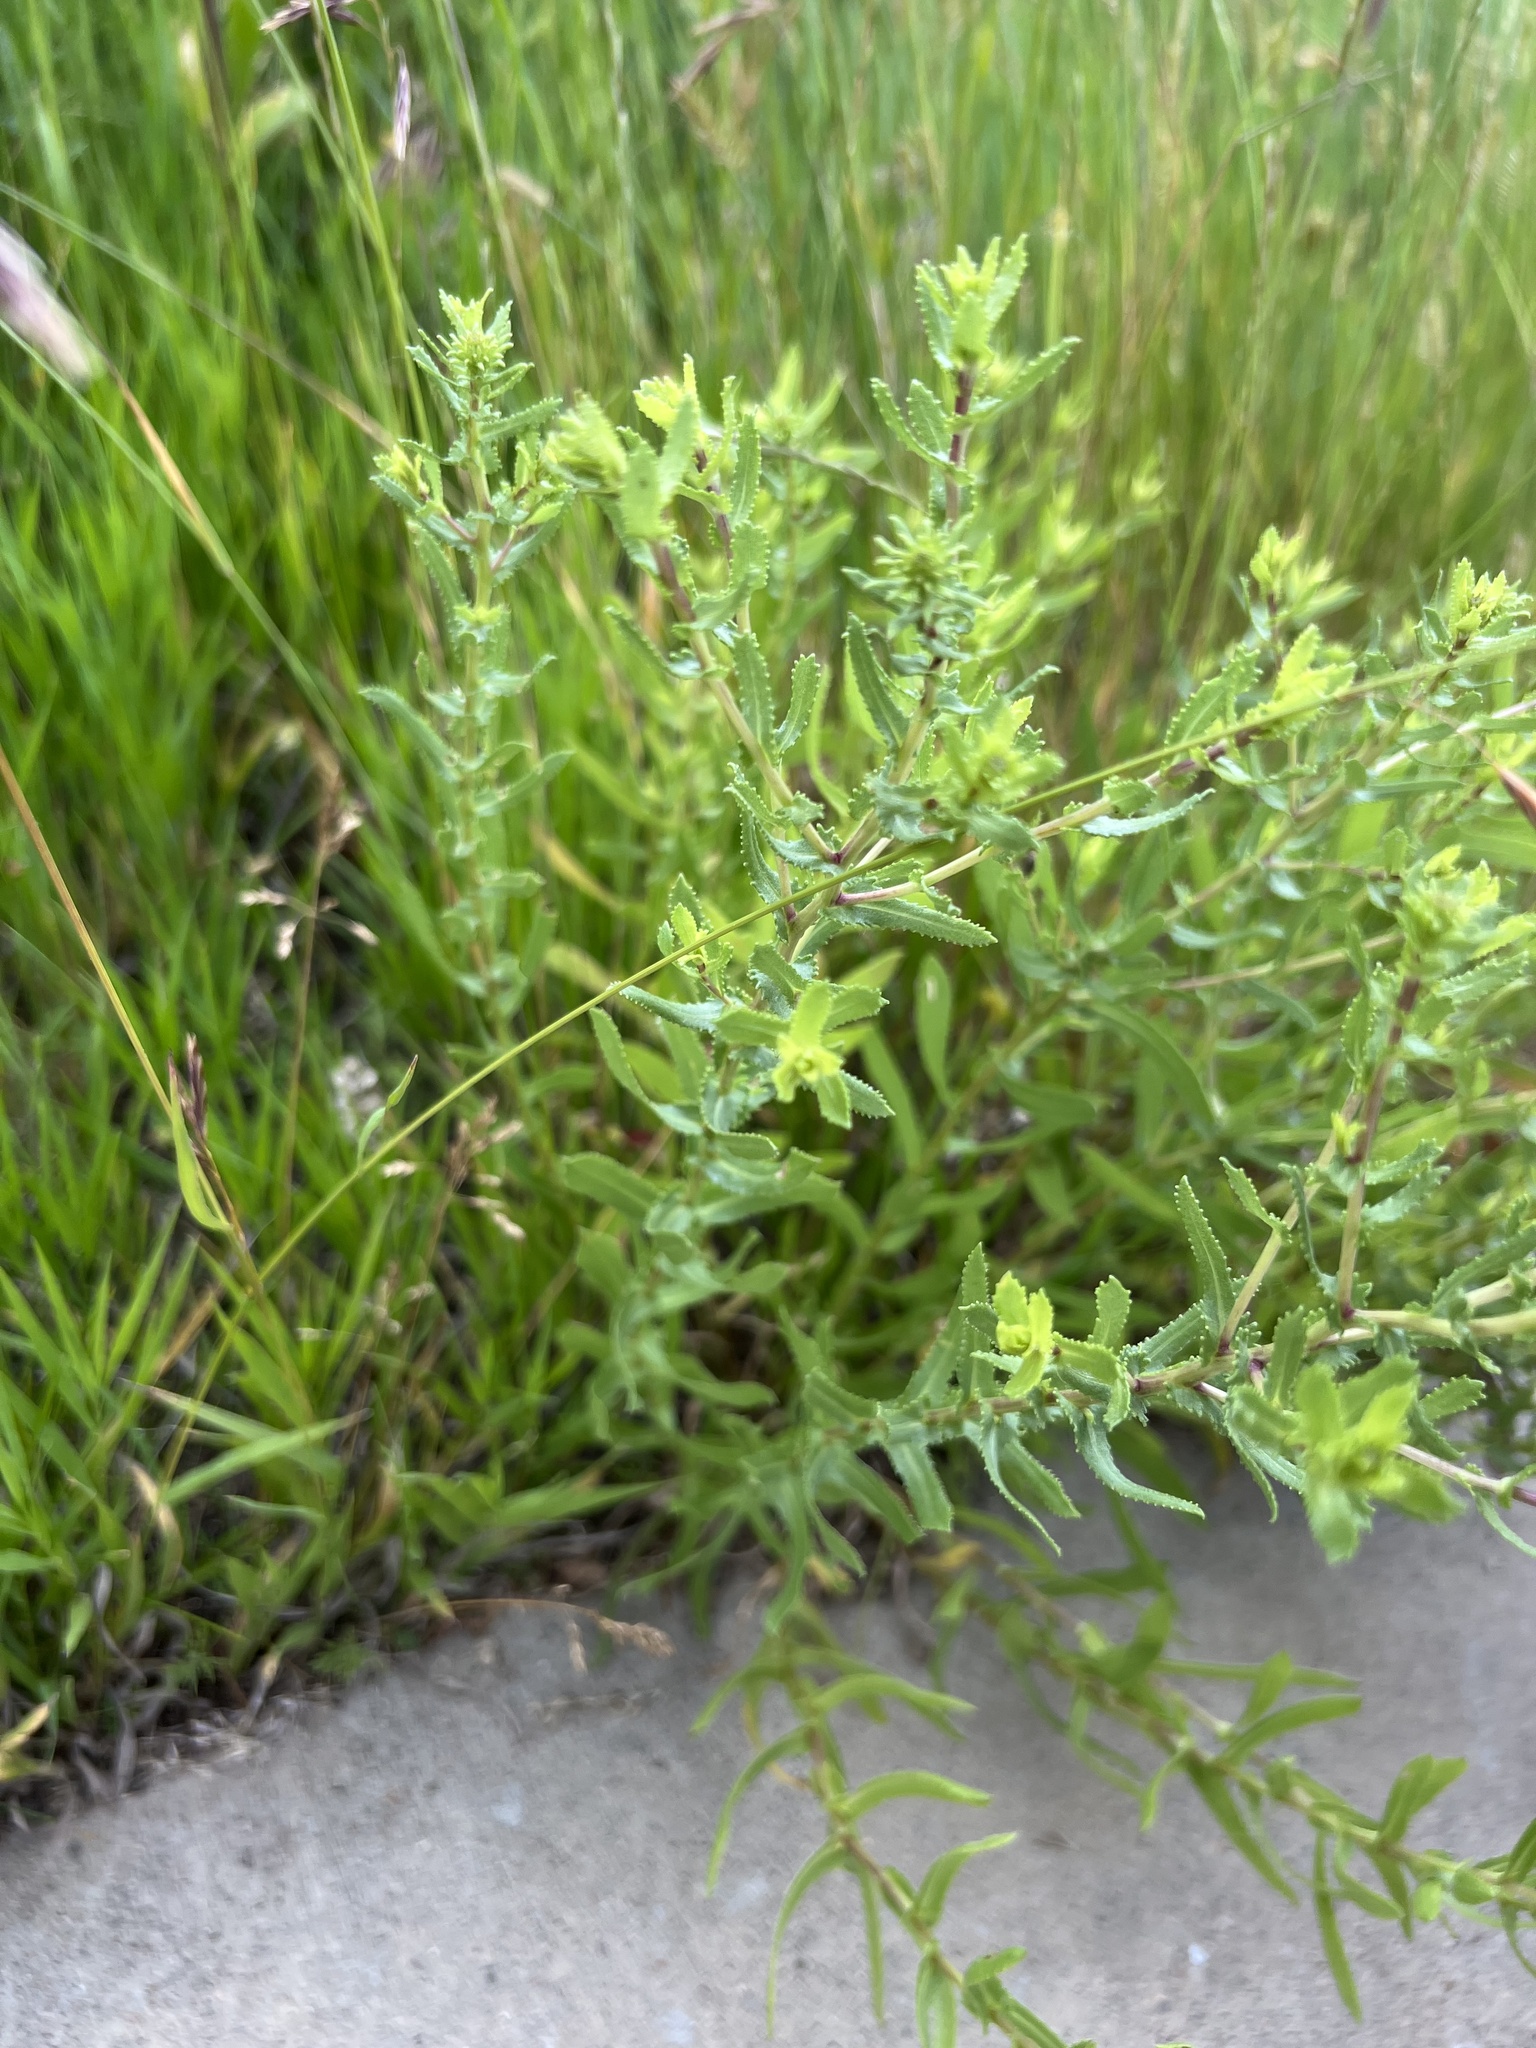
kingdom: Plantae
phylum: Tracheophyta
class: Magnoliopsida
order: Asterales
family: Asteraceae
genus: Grindelia
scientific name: Grindelia squarrosa
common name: Curly-cup gumweed
